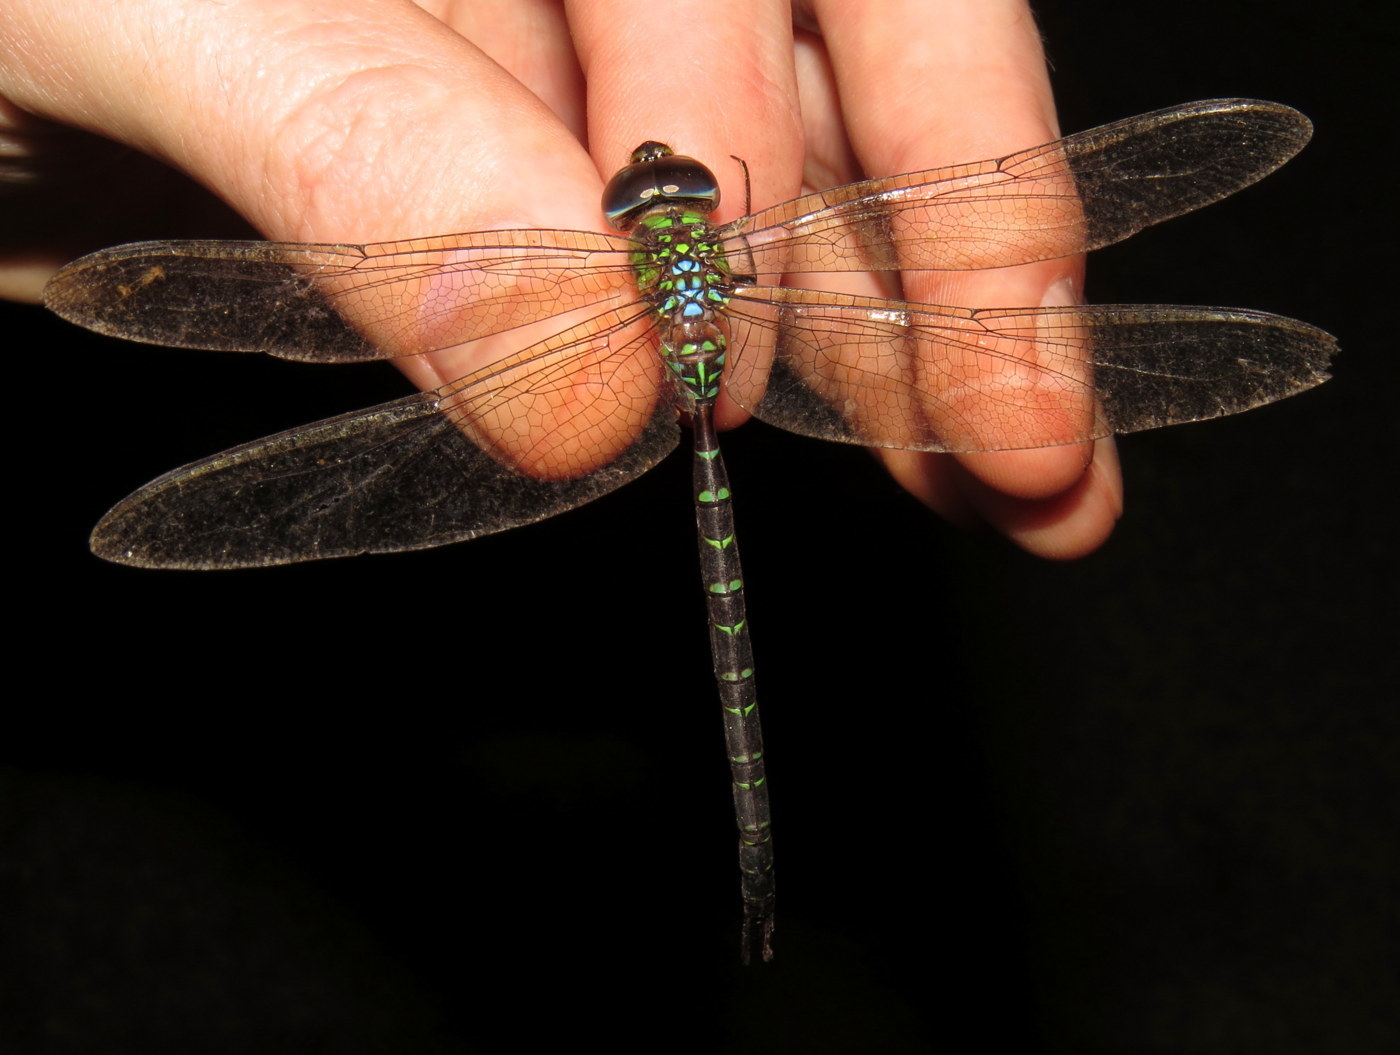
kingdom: Animalia
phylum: Arthropoda
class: Insecta
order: Odonata
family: Aeshnidae
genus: Triacanthagyna
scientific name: Triacanthagyna trifida
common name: Phantom darner
